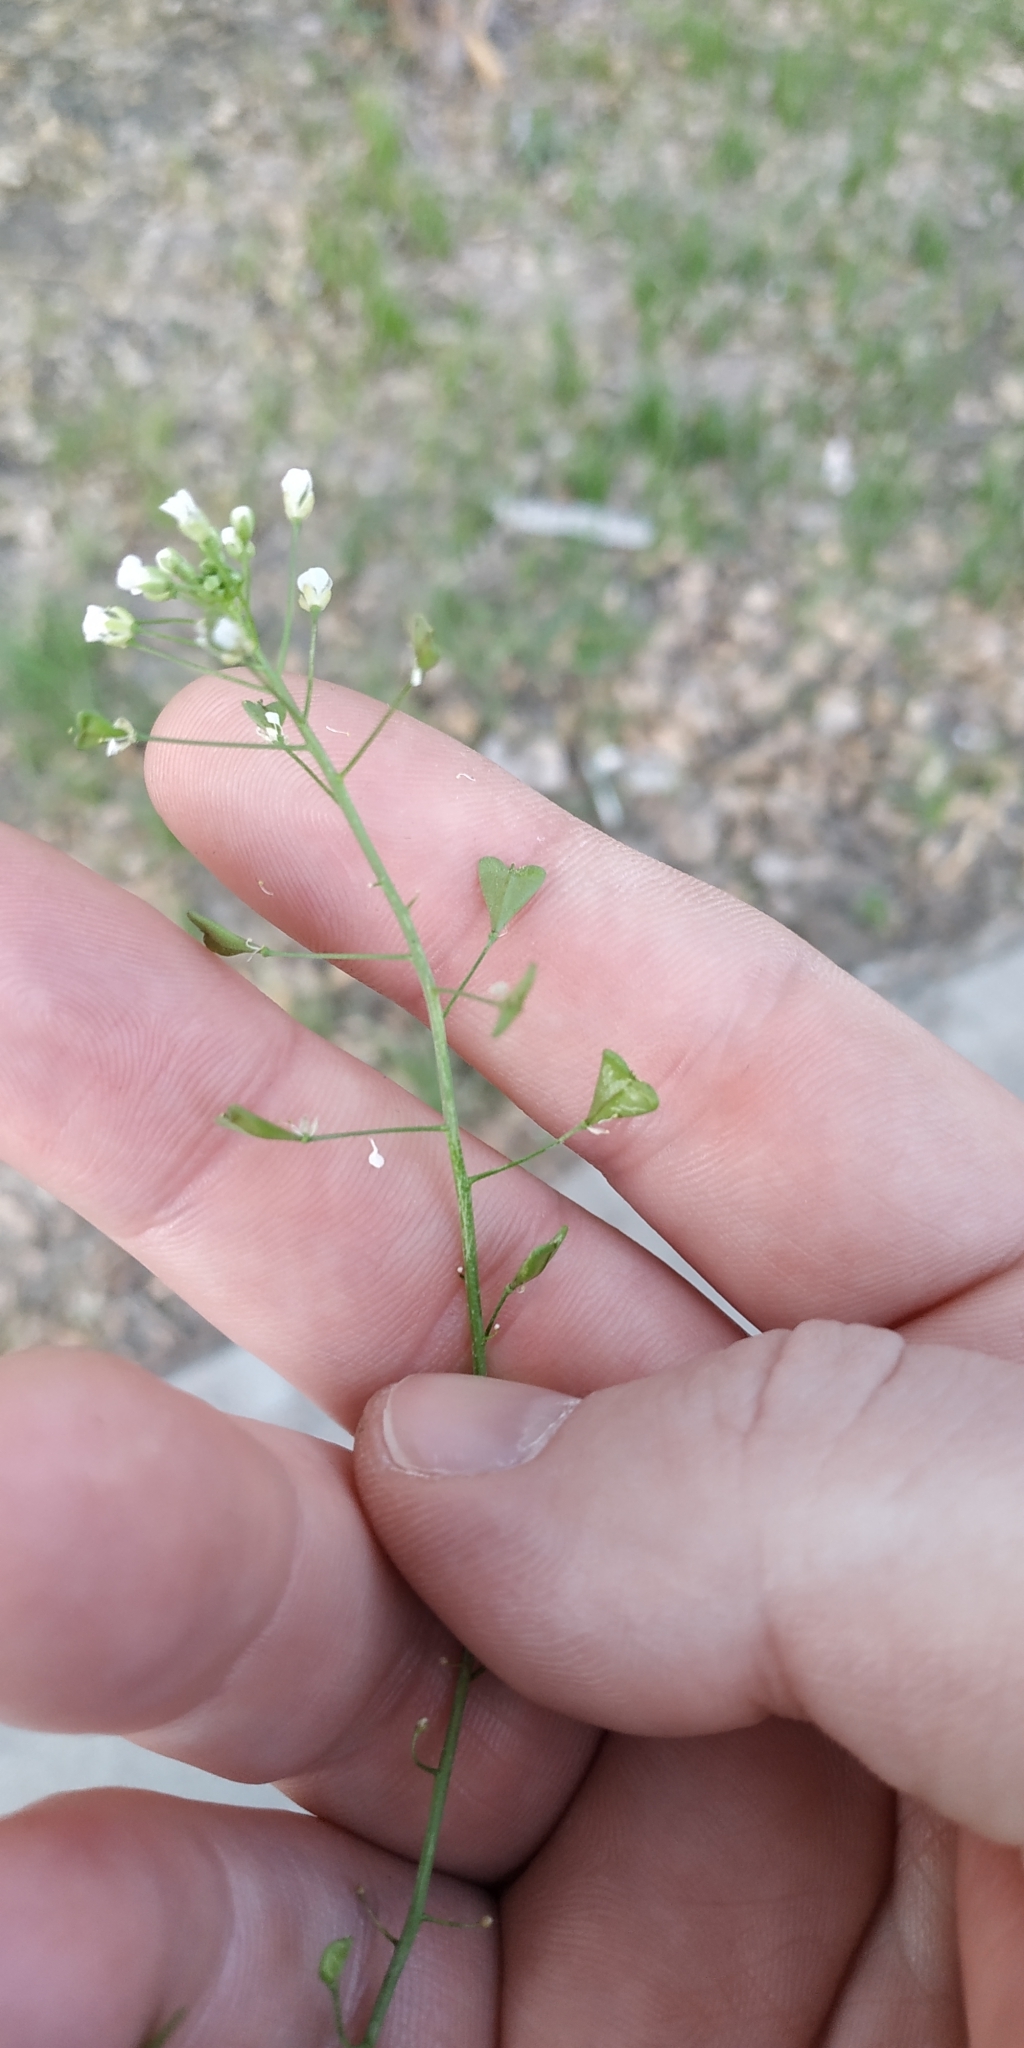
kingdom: Plantae
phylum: Tracheophyta
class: Magnoliopsida
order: Brassicales
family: Brassicaceae
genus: Capsella
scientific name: Capsella bursa-pastoris
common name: Shepherd's purse
